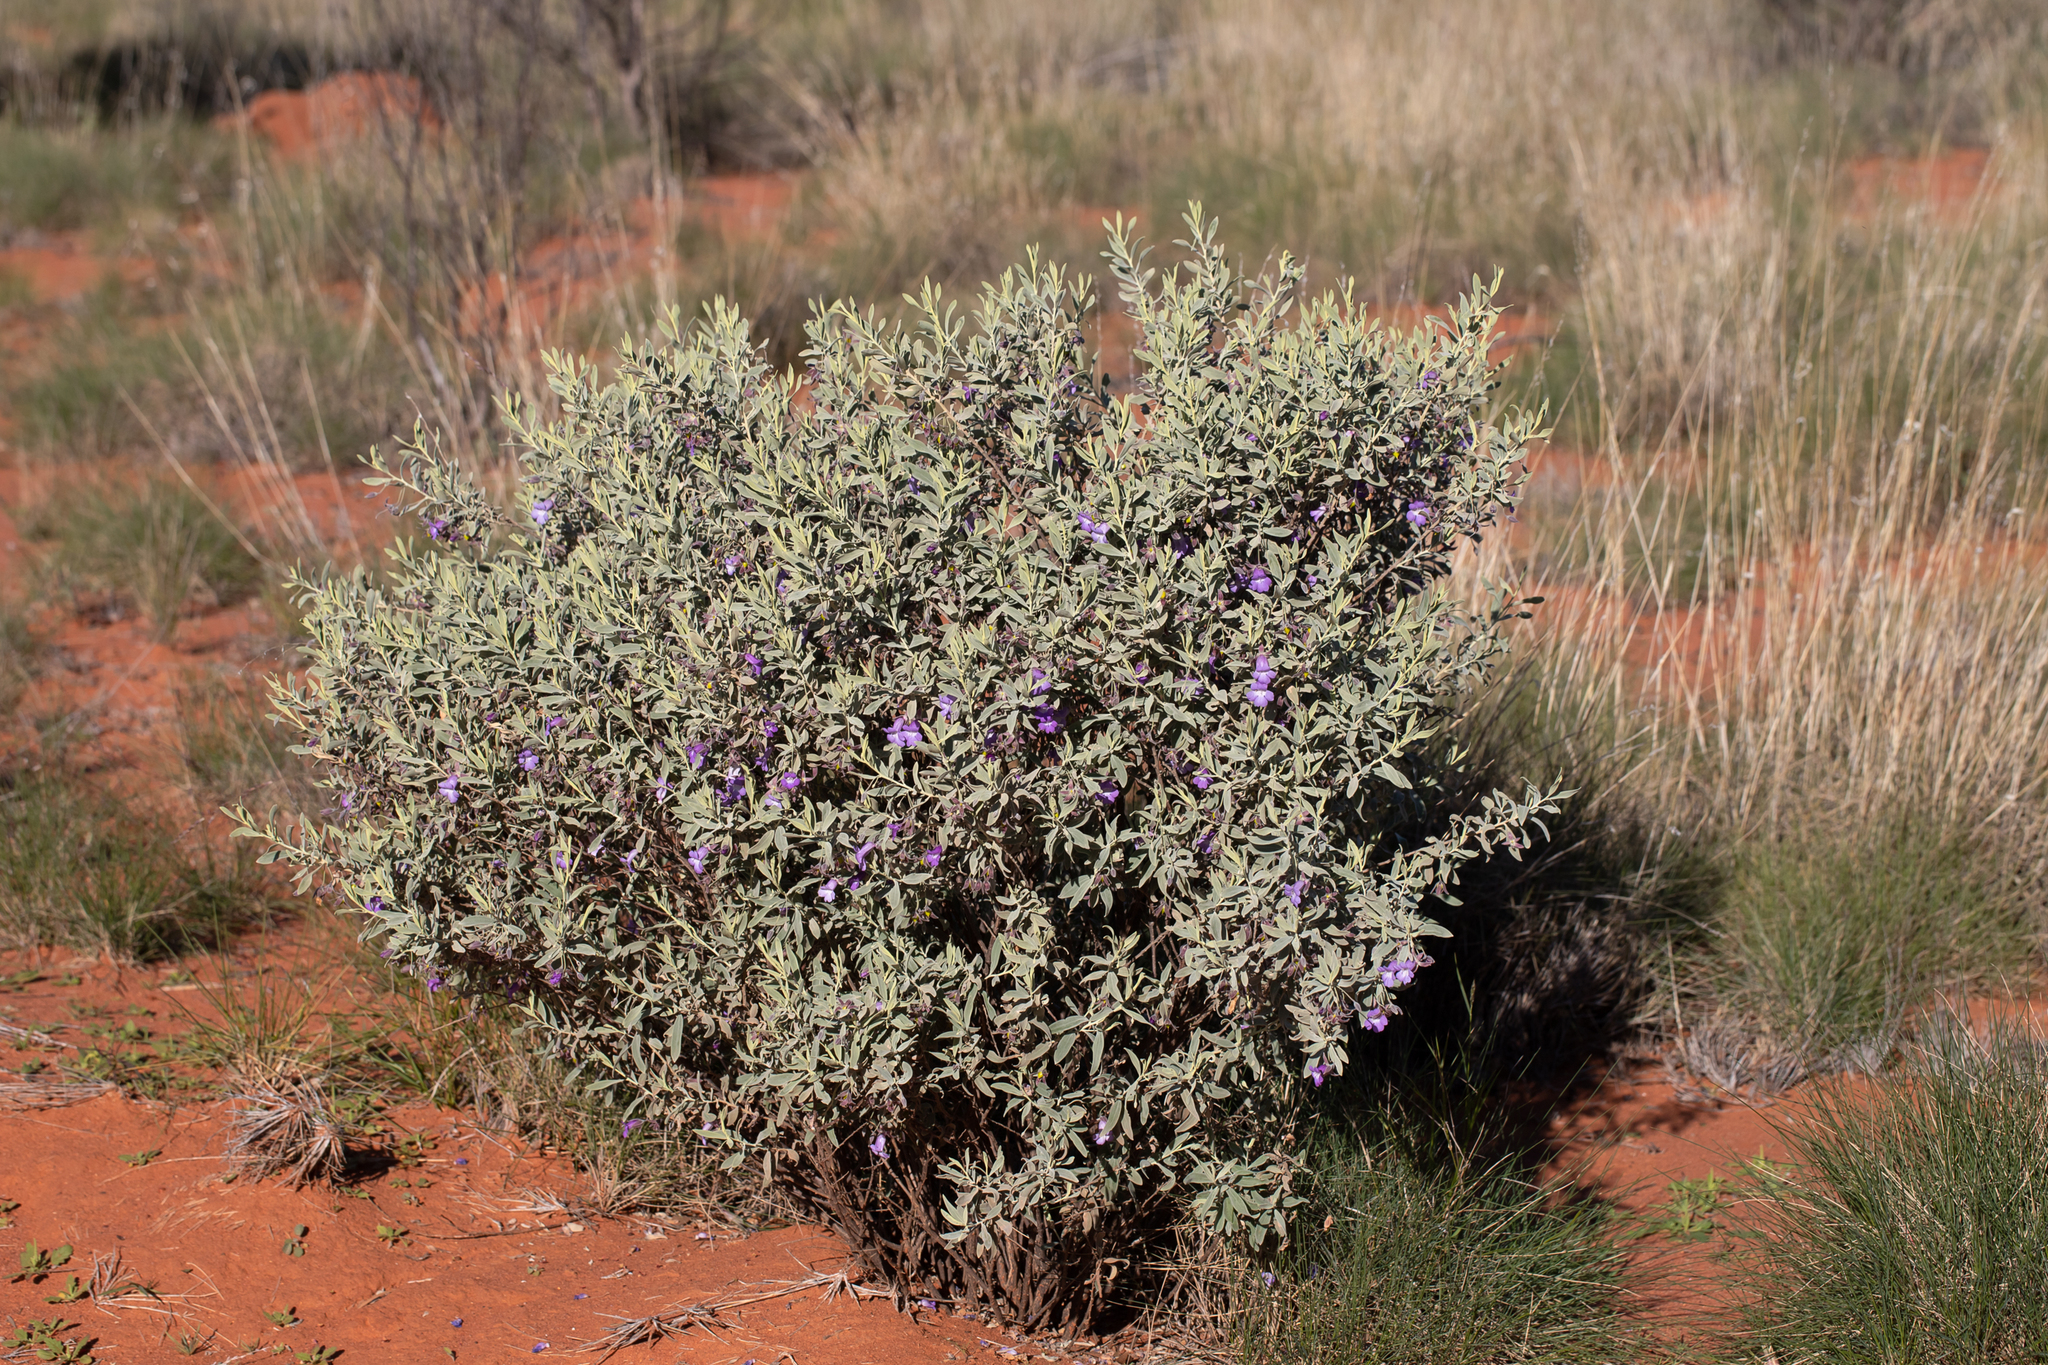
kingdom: Plantae
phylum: Tracheophyta
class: Magnoliopsida
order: Lamiales
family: Scrophulariaceae
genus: Eremophila
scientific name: Eremophila bowmanii
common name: Silver turkeybush
